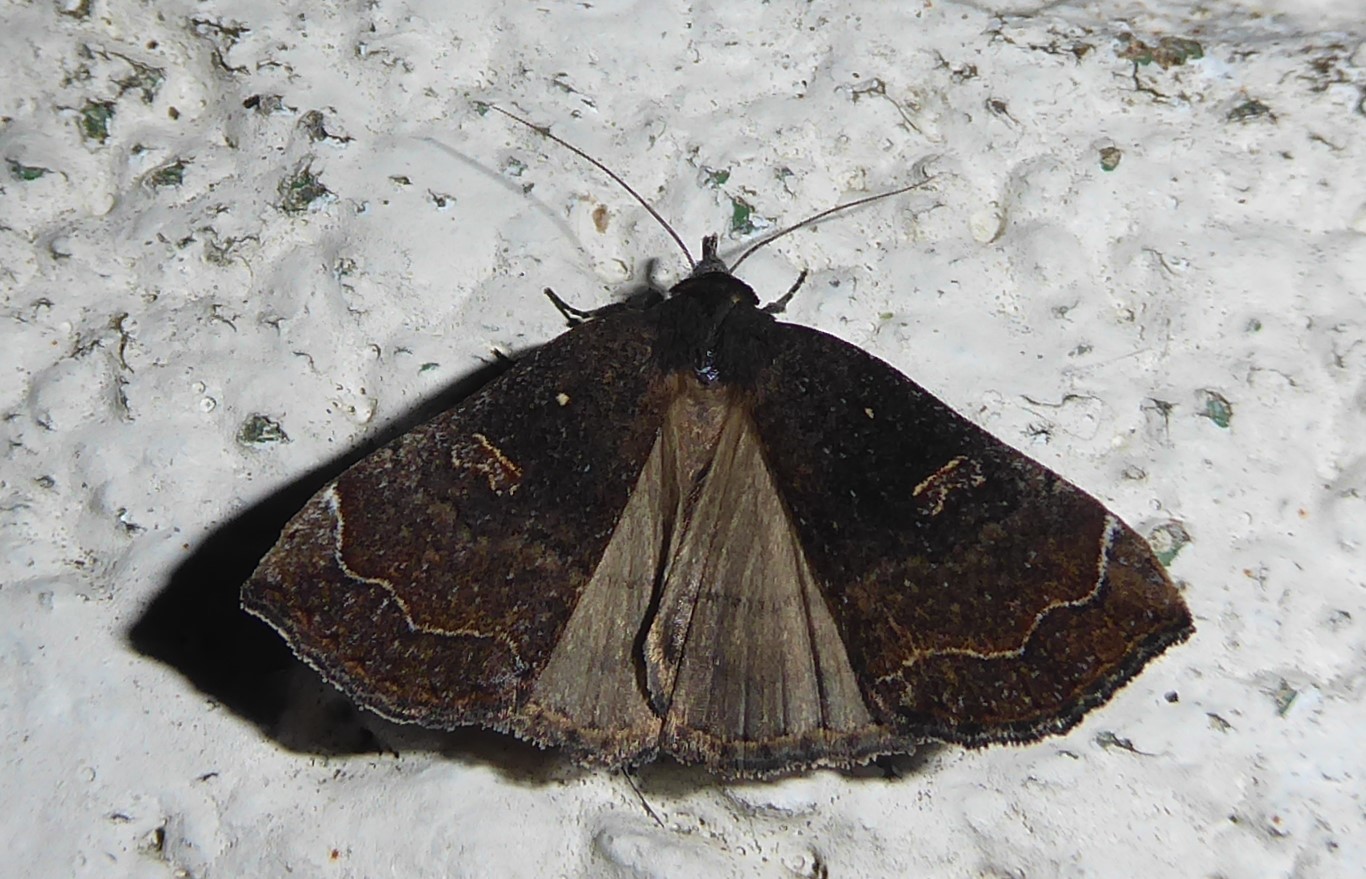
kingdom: Animalia
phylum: Arthropoda
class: Insecta
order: Lepidoptera
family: Erebidae
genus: Rhapsa
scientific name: Rhapsa scotosialis
